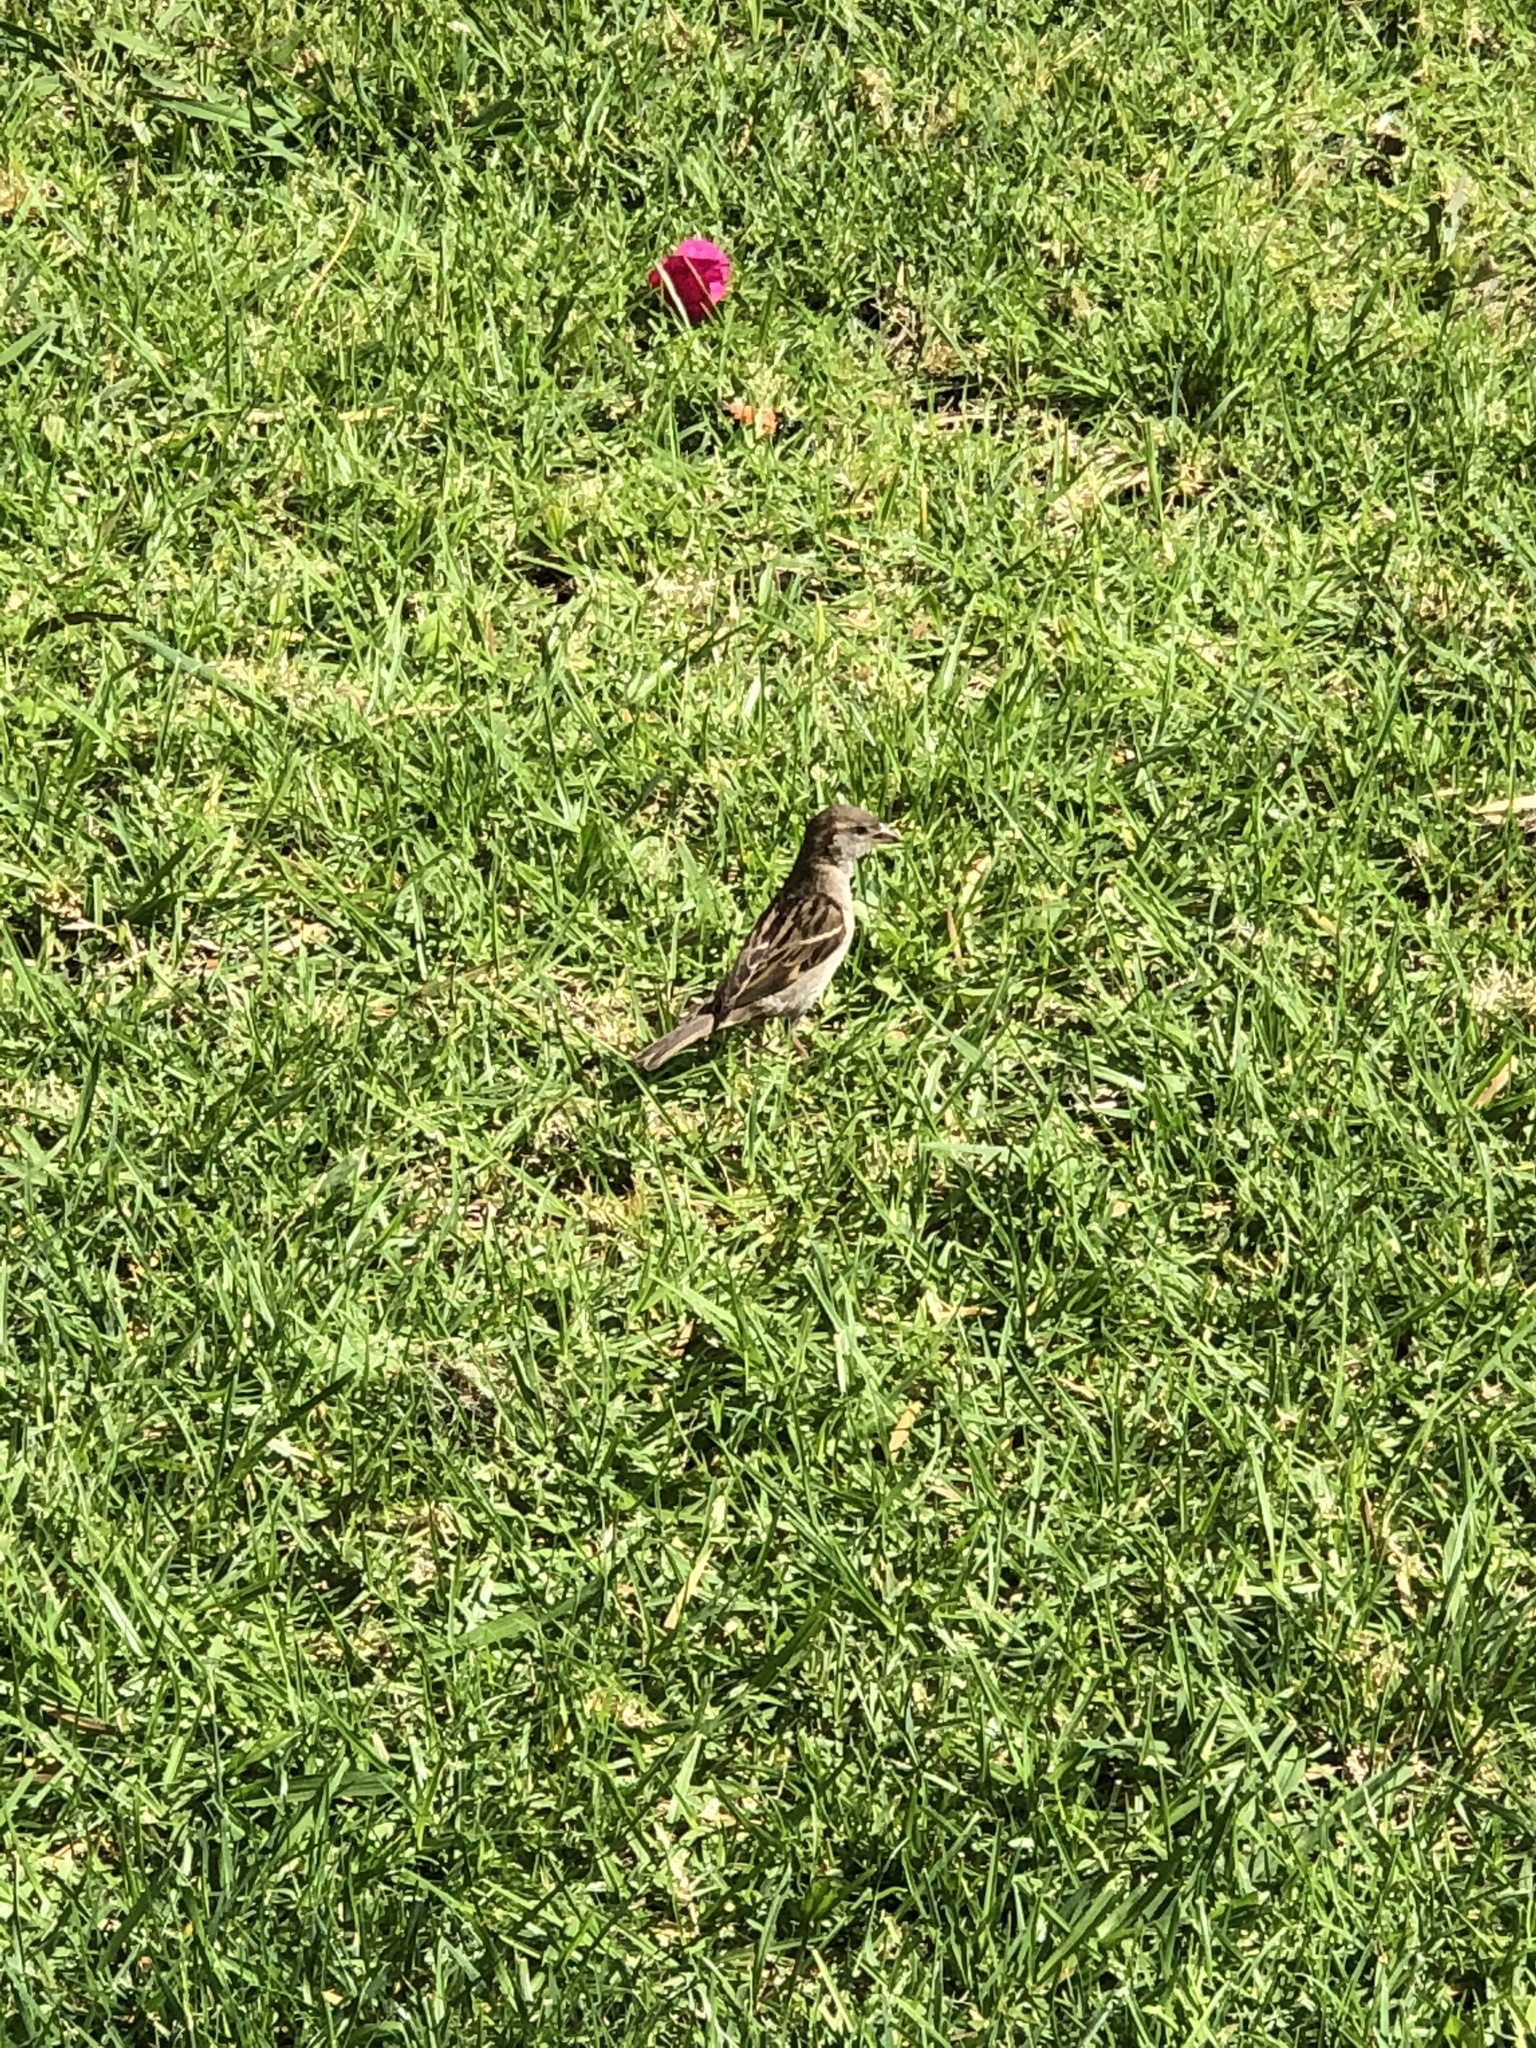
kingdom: Animalia
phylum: Chordata
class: Aves
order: Passeriformes
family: Passeridae
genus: Passer
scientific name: Passer domesticus
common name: House sparrow
